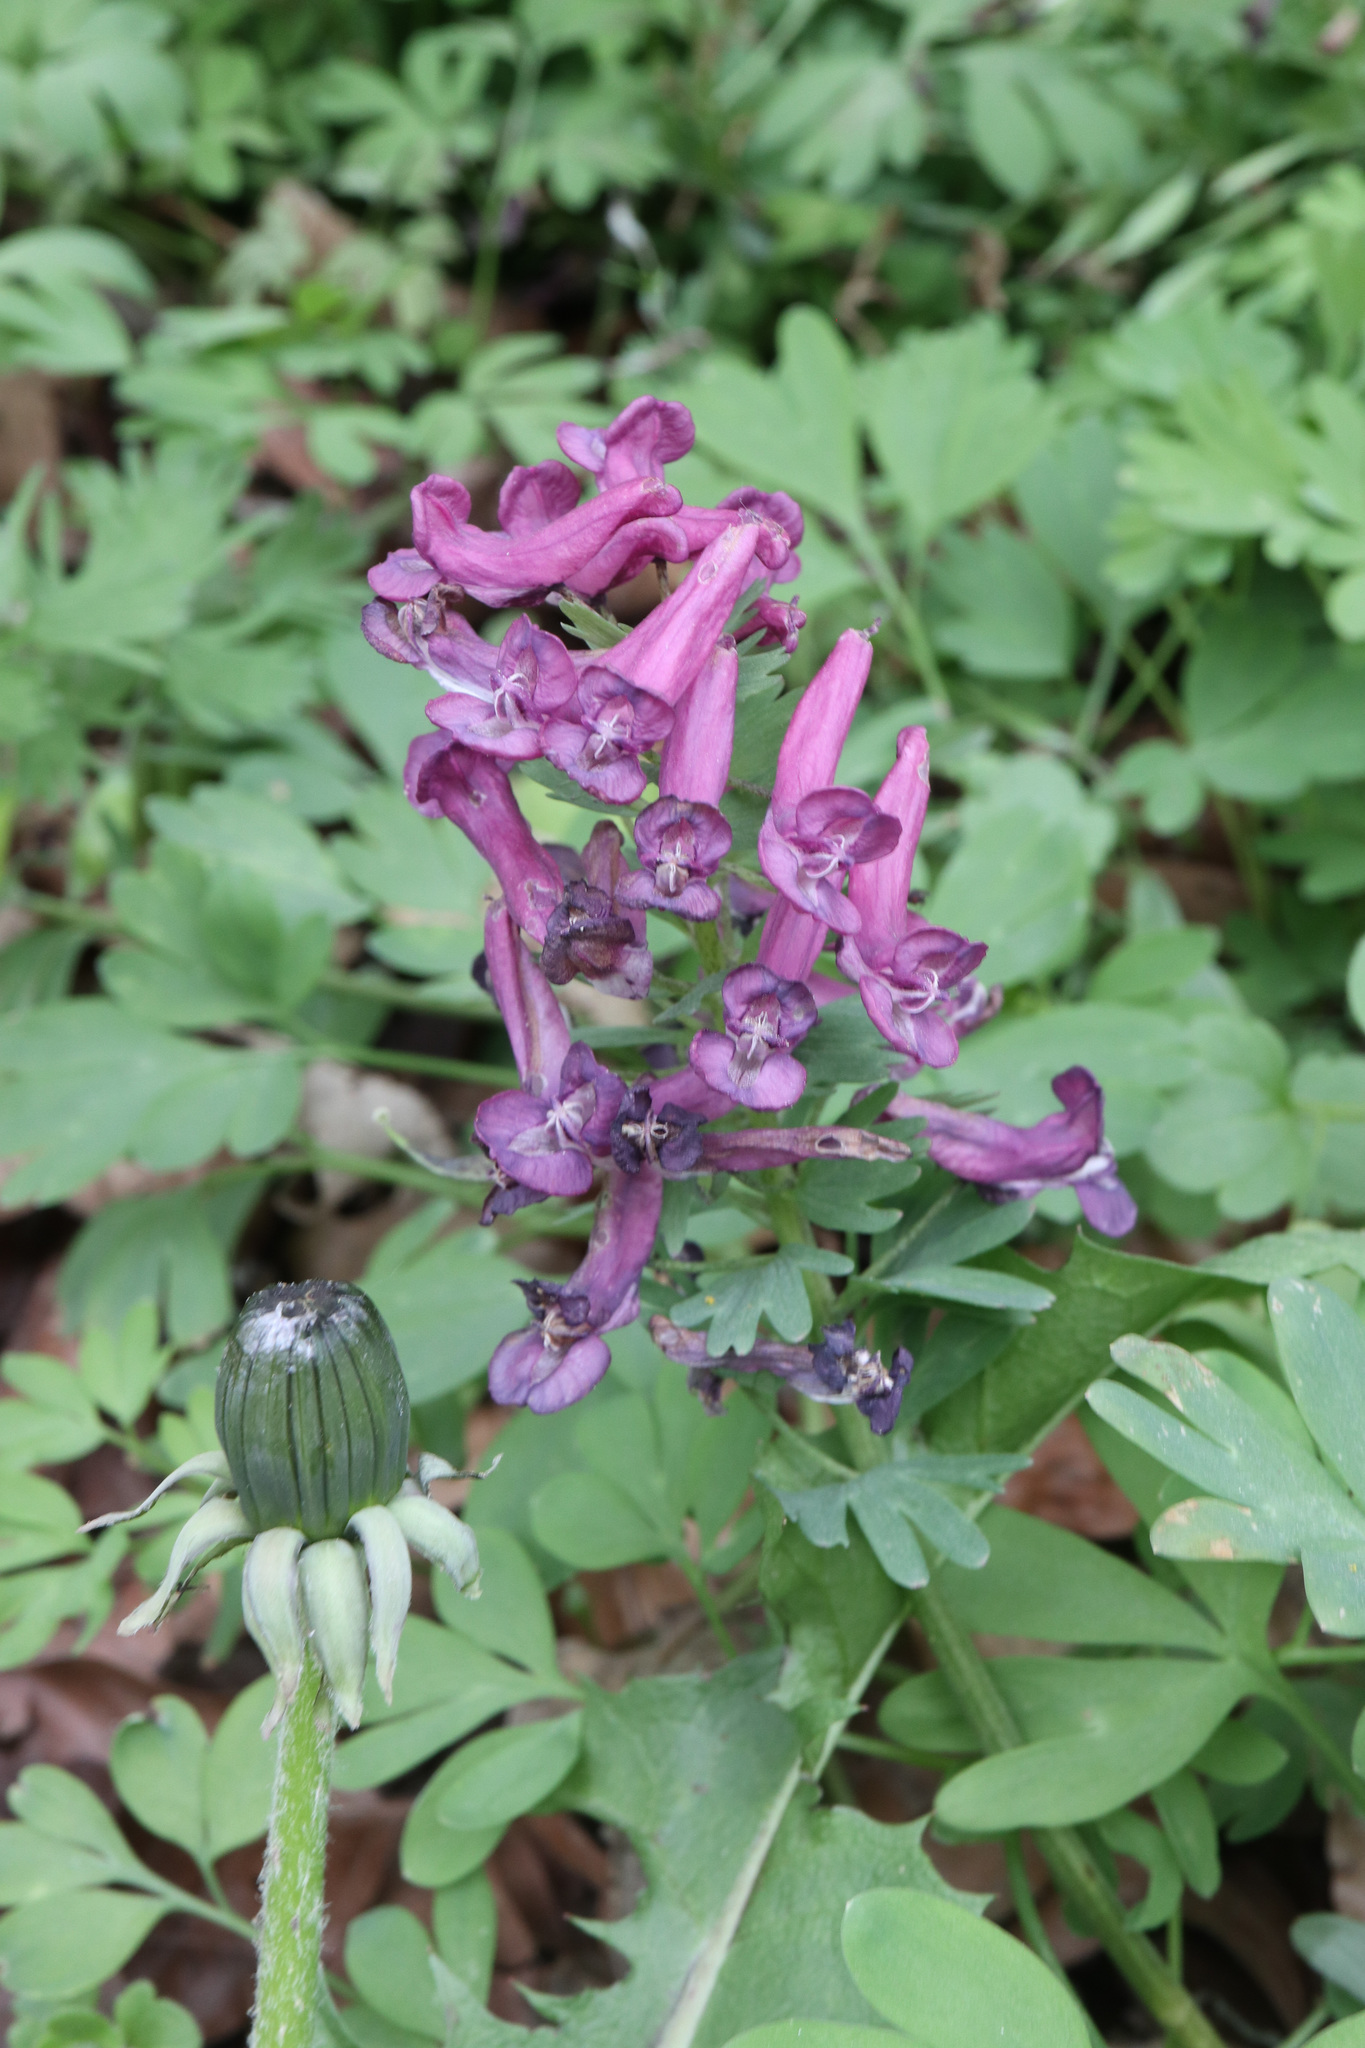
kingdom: Plantae
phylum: Tracheophyta
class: Magnoliopsida
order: Ranunculales
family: Papaveraceae
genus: Corydalis
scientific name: Corydalis solida
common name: Bird-in-a-bush
